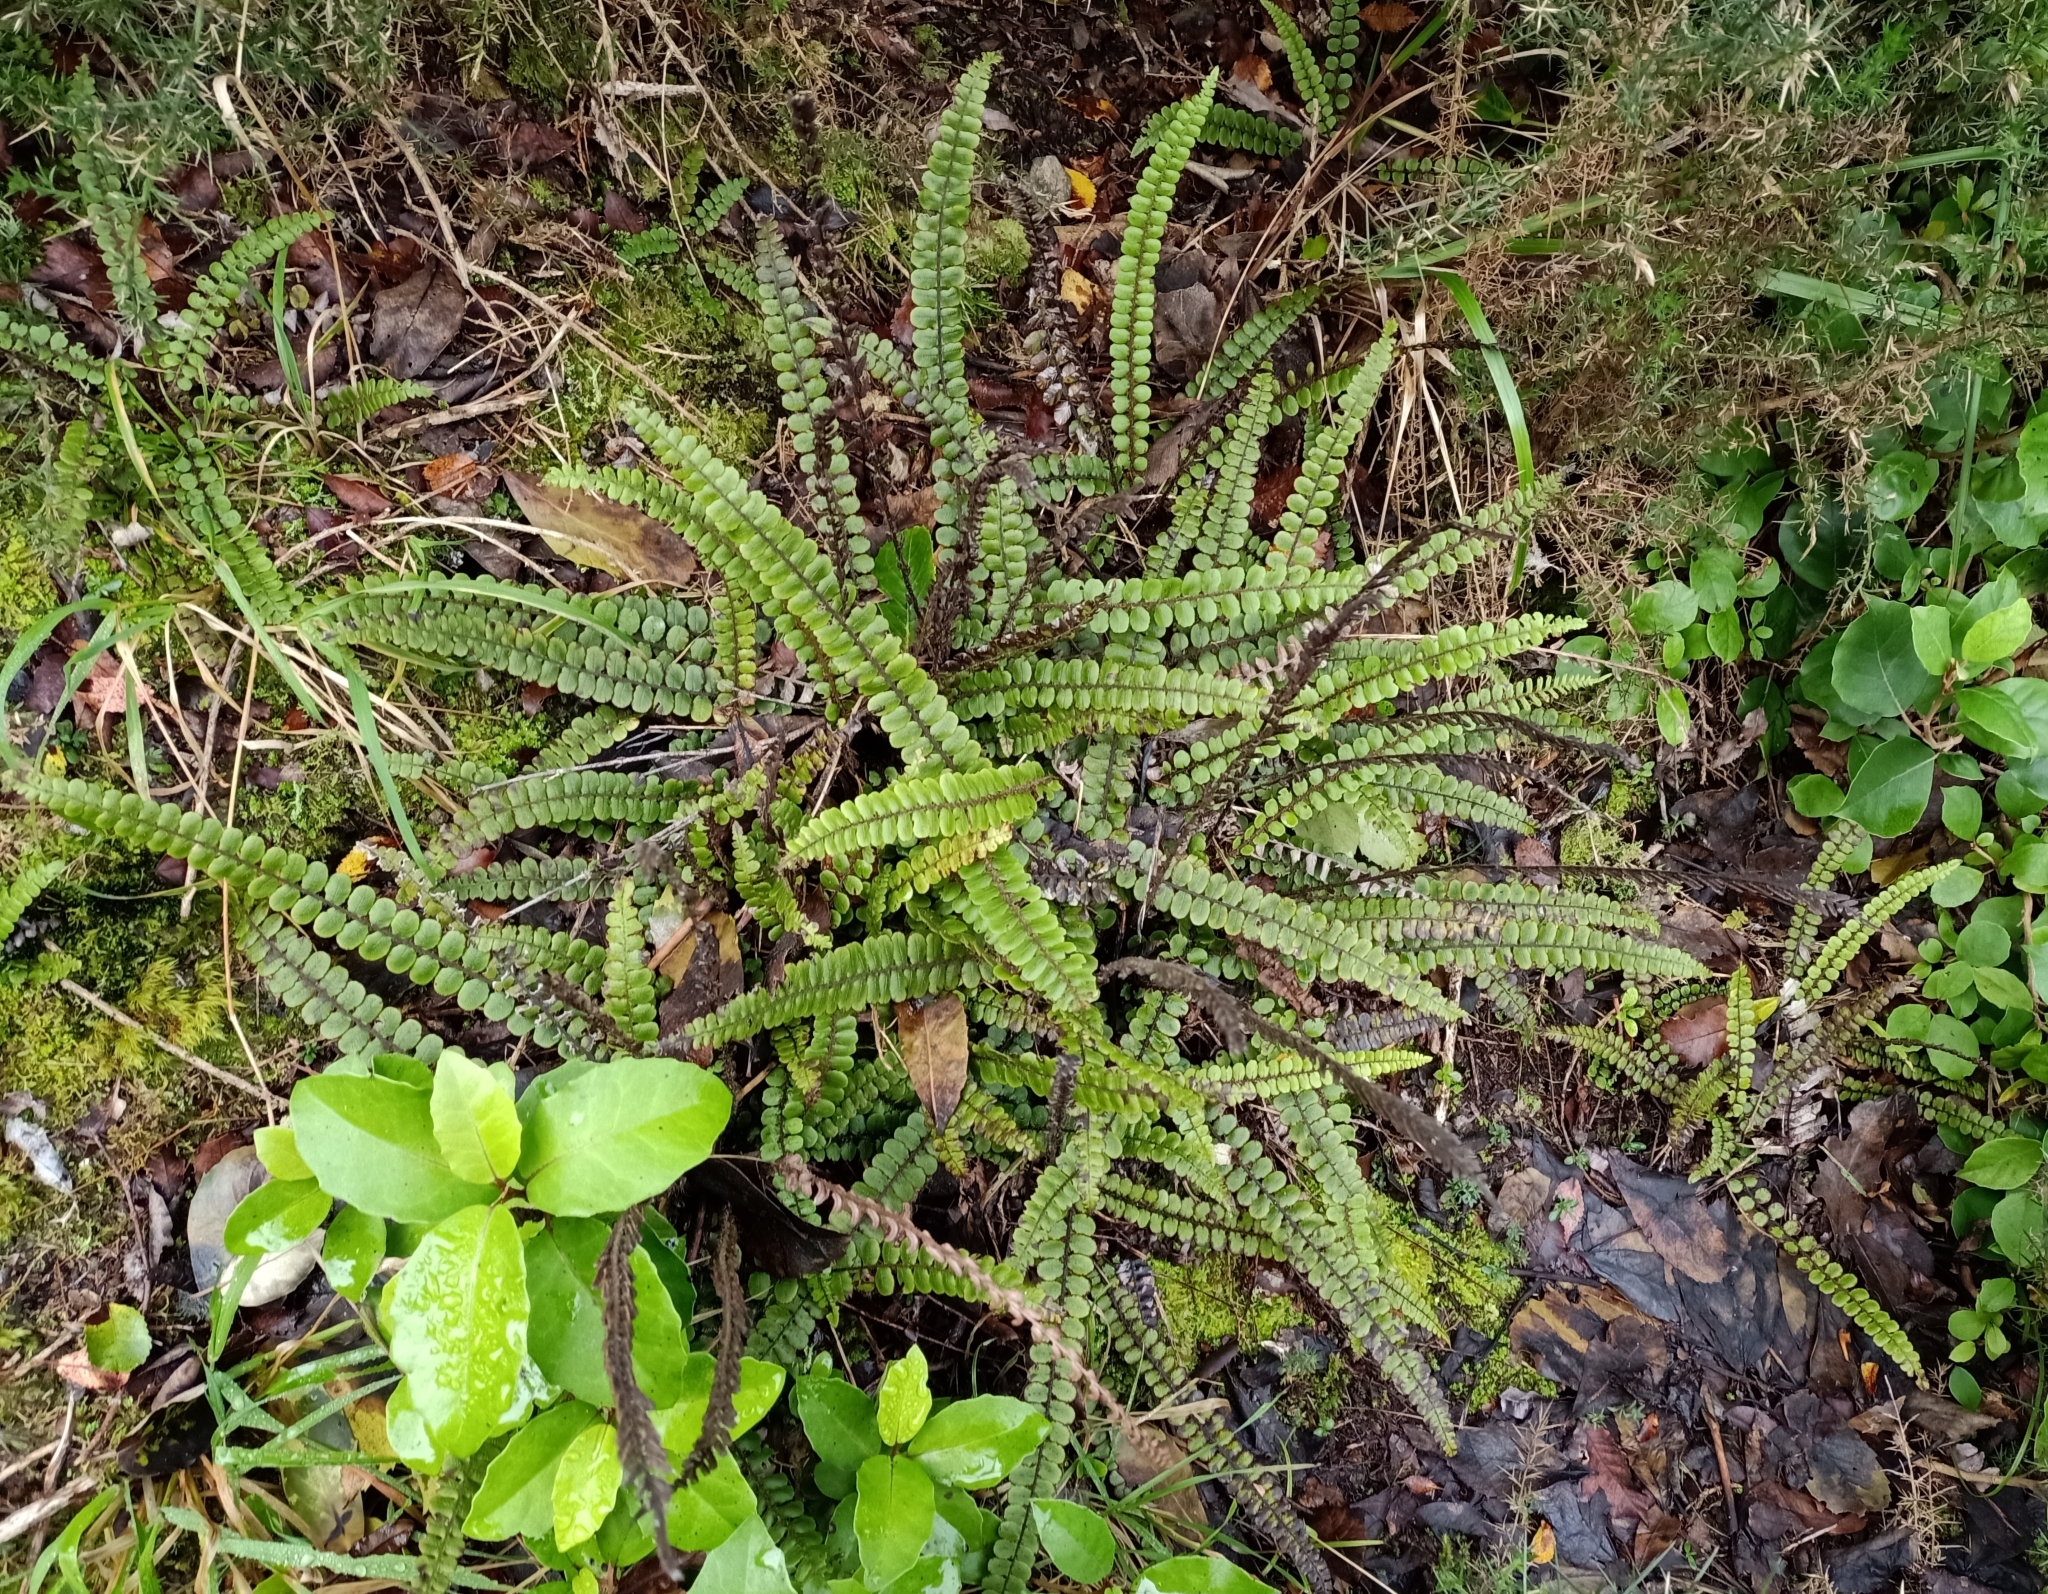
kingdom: Plantae
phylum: Tracheophyta
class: Polypodiopsida
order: Polypodiales
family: Blechnaceae
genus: Cranfillia
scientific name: Cranfillia fluviatilis
